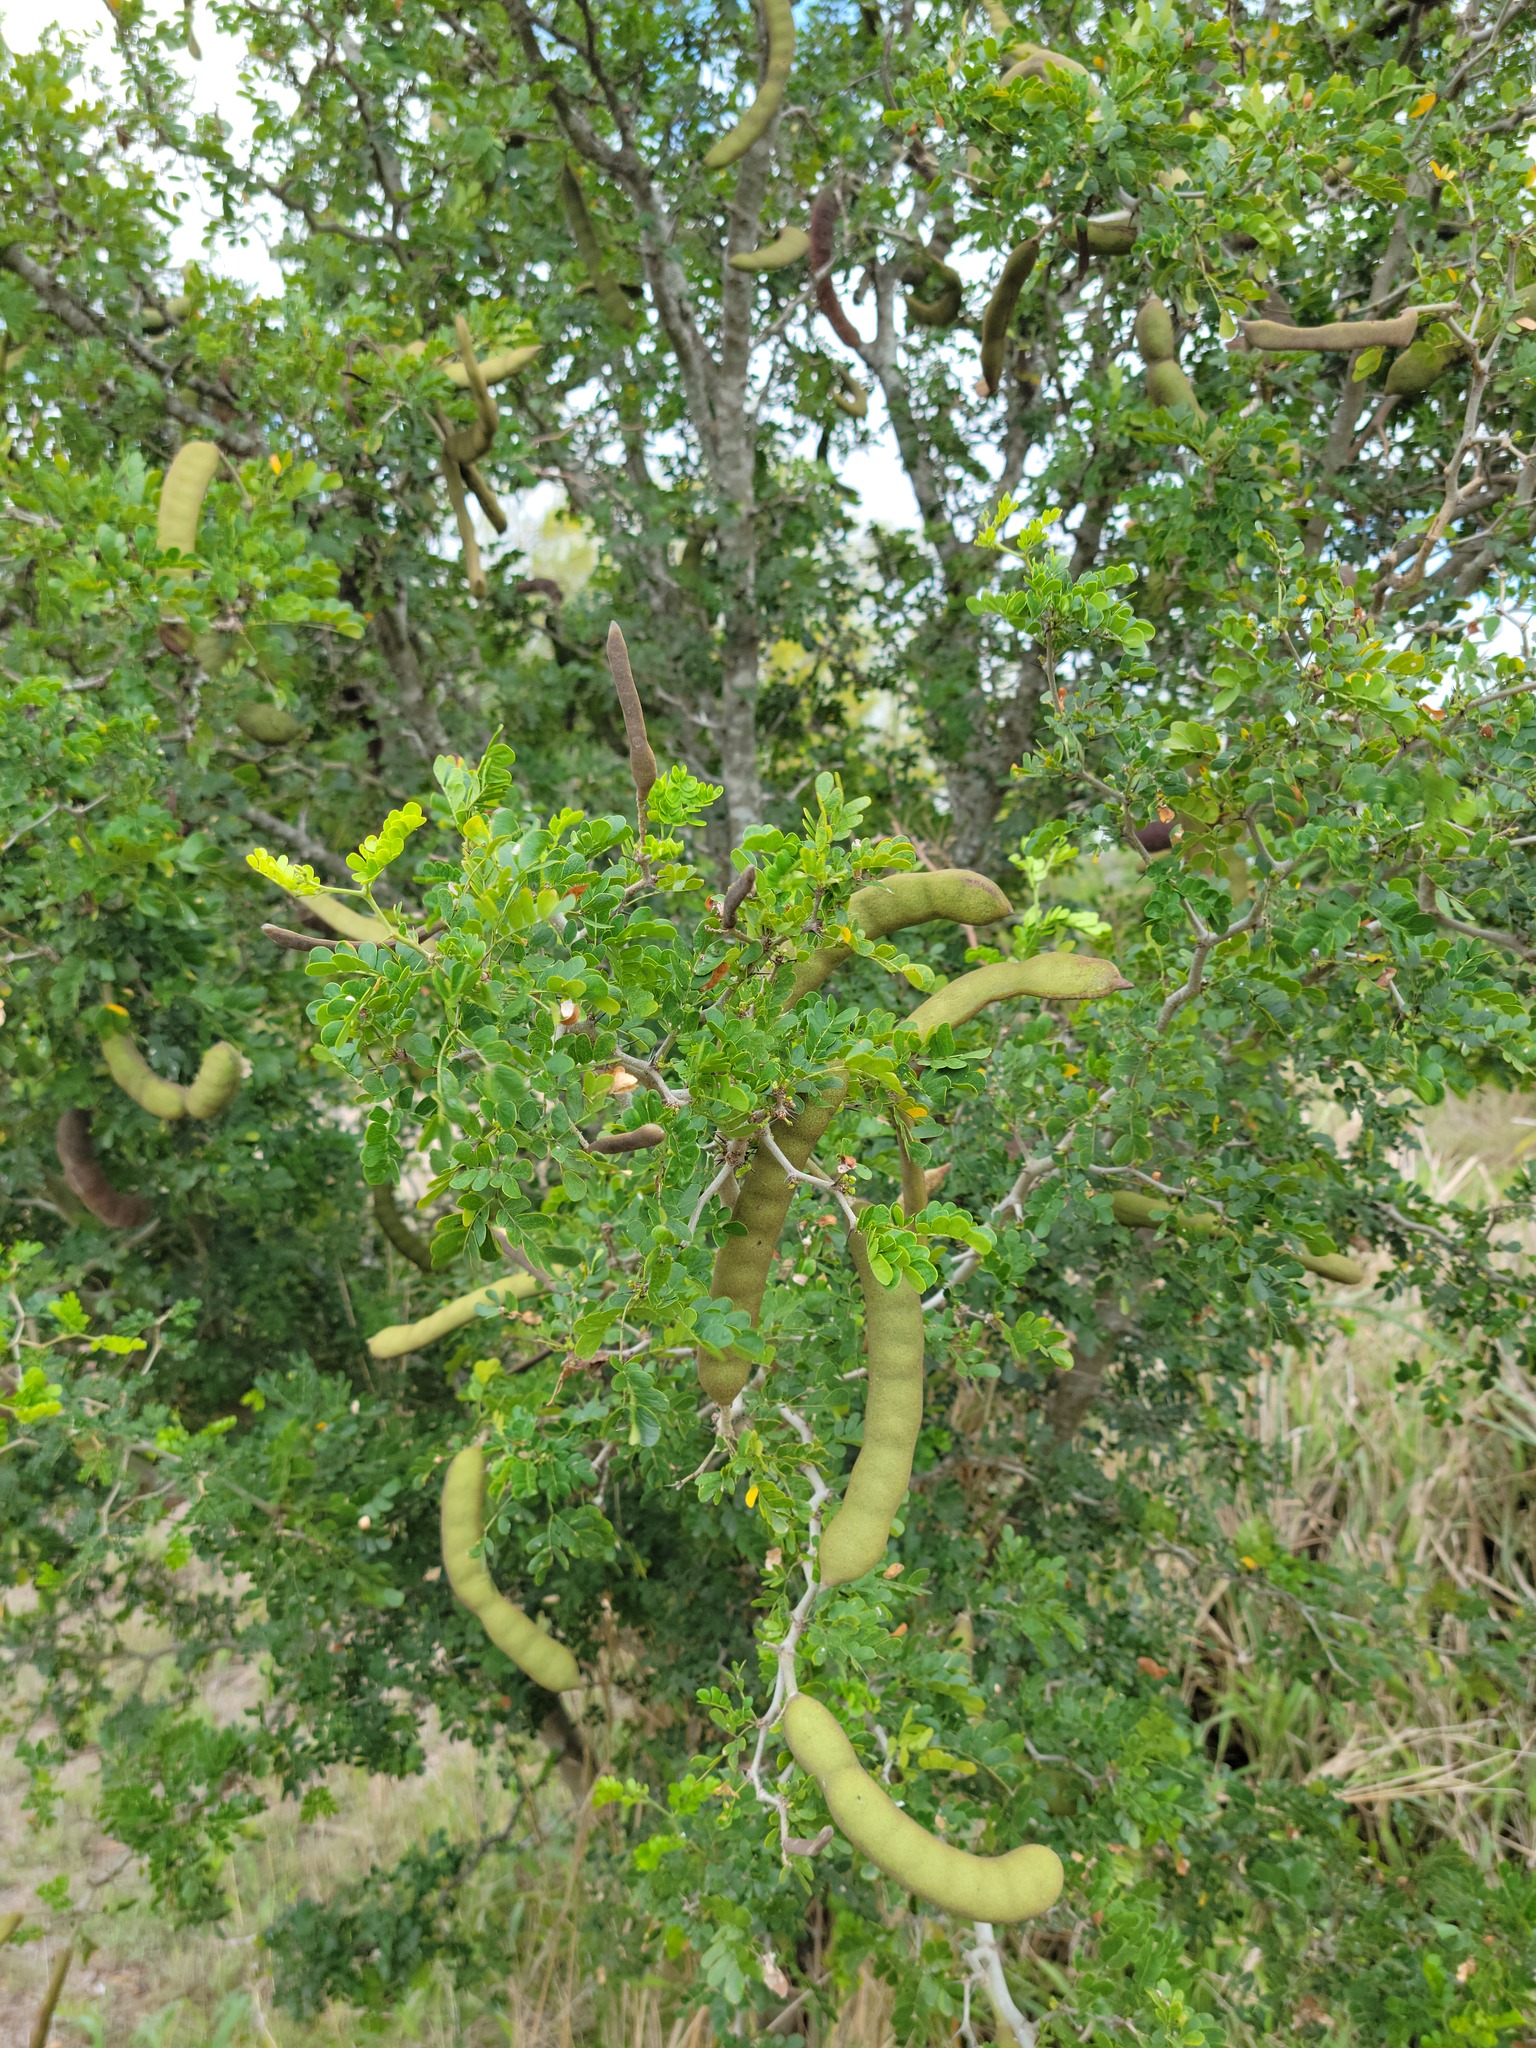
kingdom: Plantae
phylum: Tracheophyta
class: Magnoliopsida
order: Fabales
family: Fabaceae
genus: Ebenopsis
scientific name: Ebenopsis ebano
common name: Ebony blackbead
